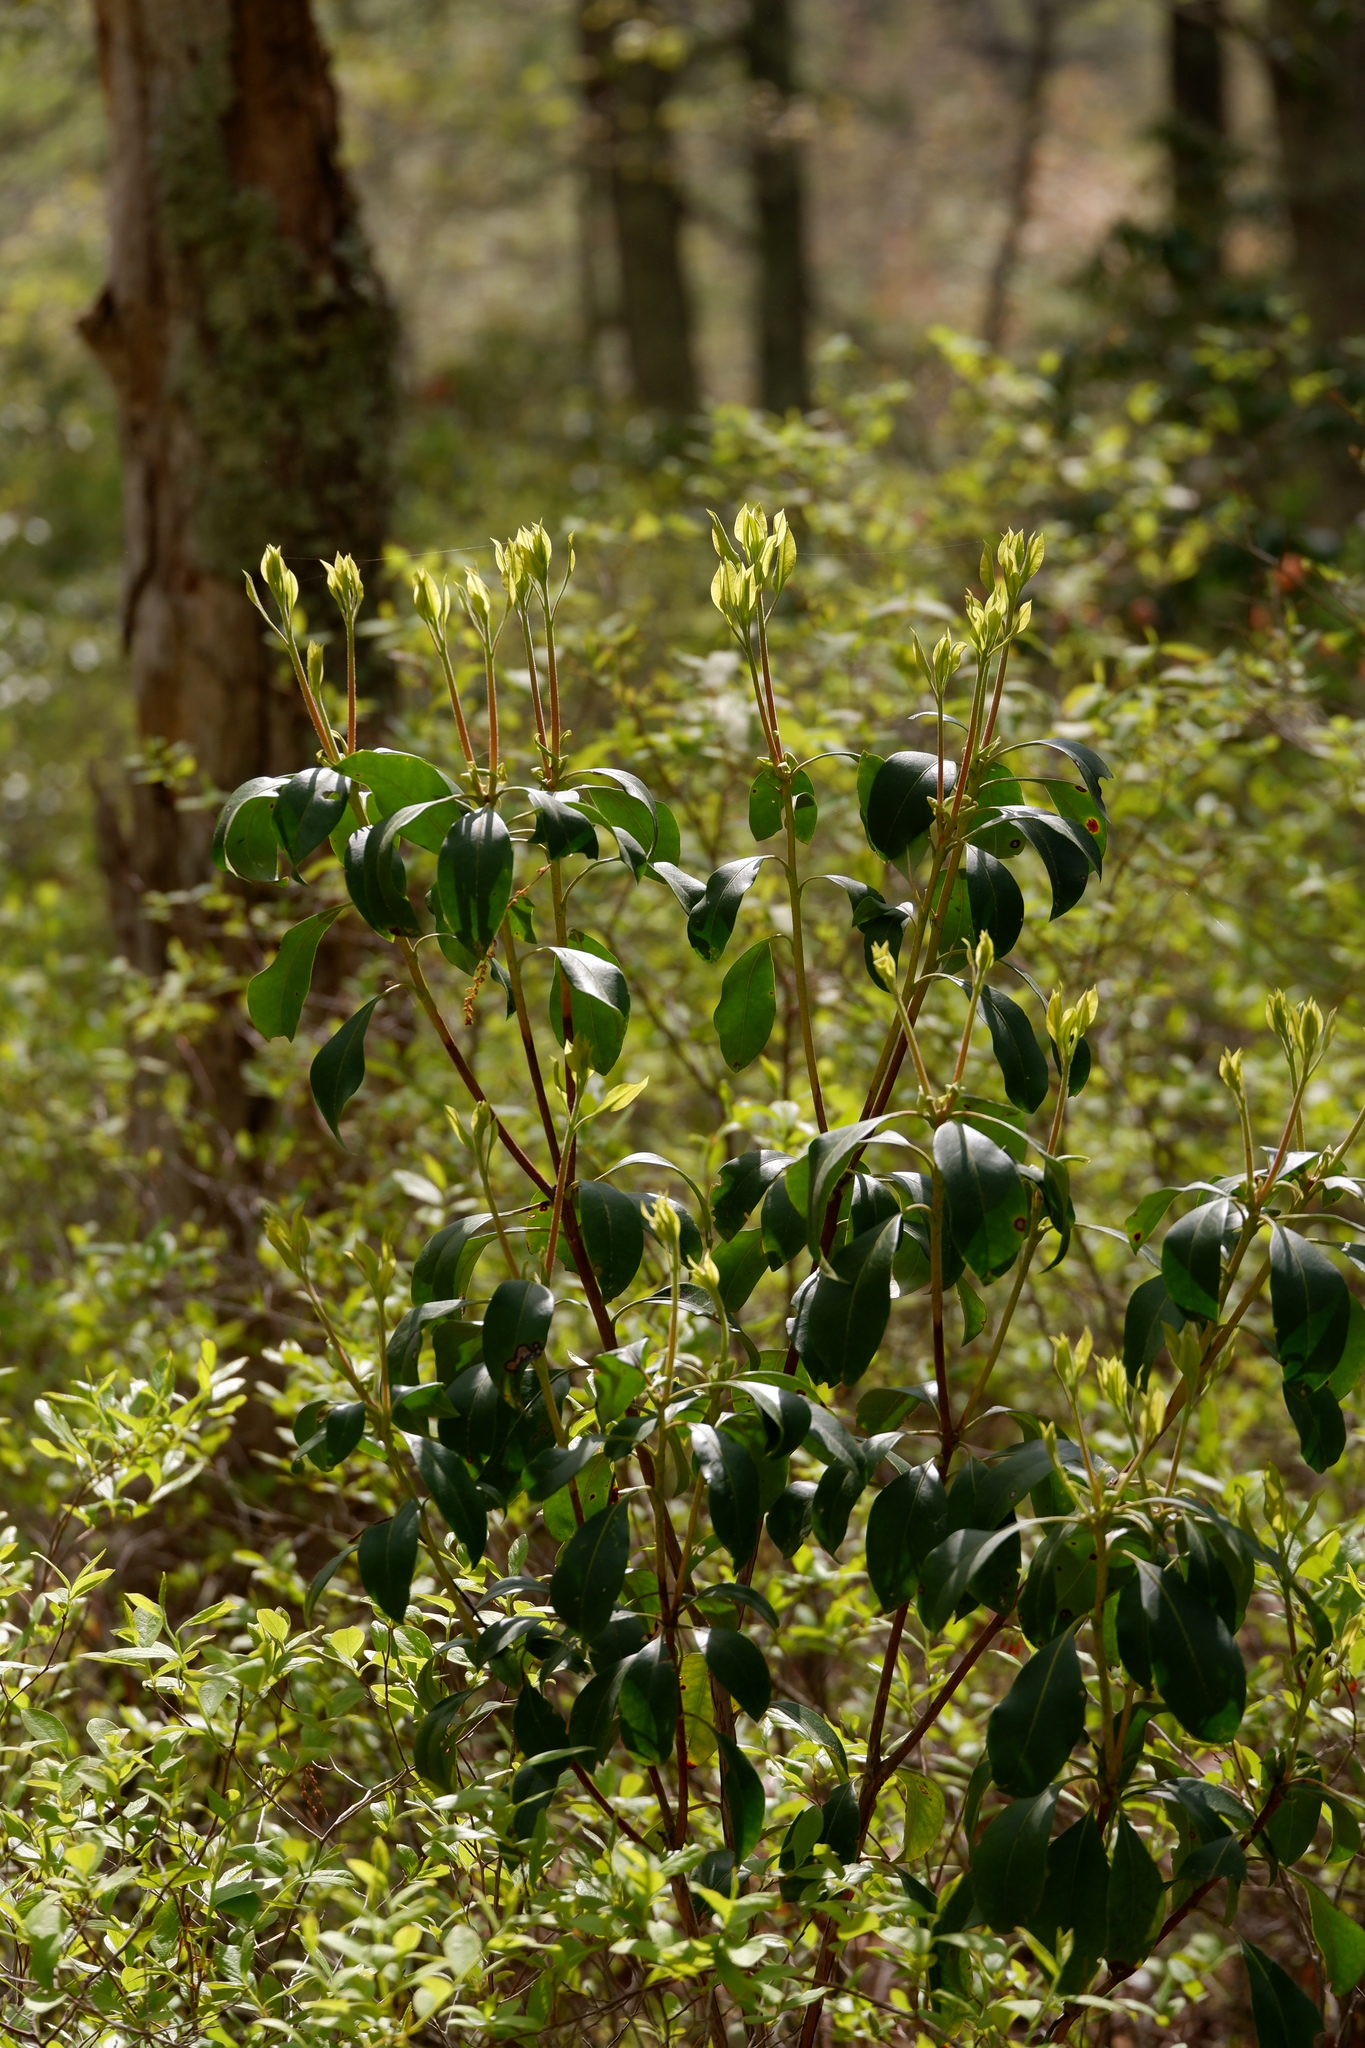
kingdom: Plantae
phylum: Tracheophyta
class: Magnoliopsida
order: Ericales
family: Ericaceae
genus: Kalmia
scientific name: Kalmia latifolia
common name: Mountain-laurel
